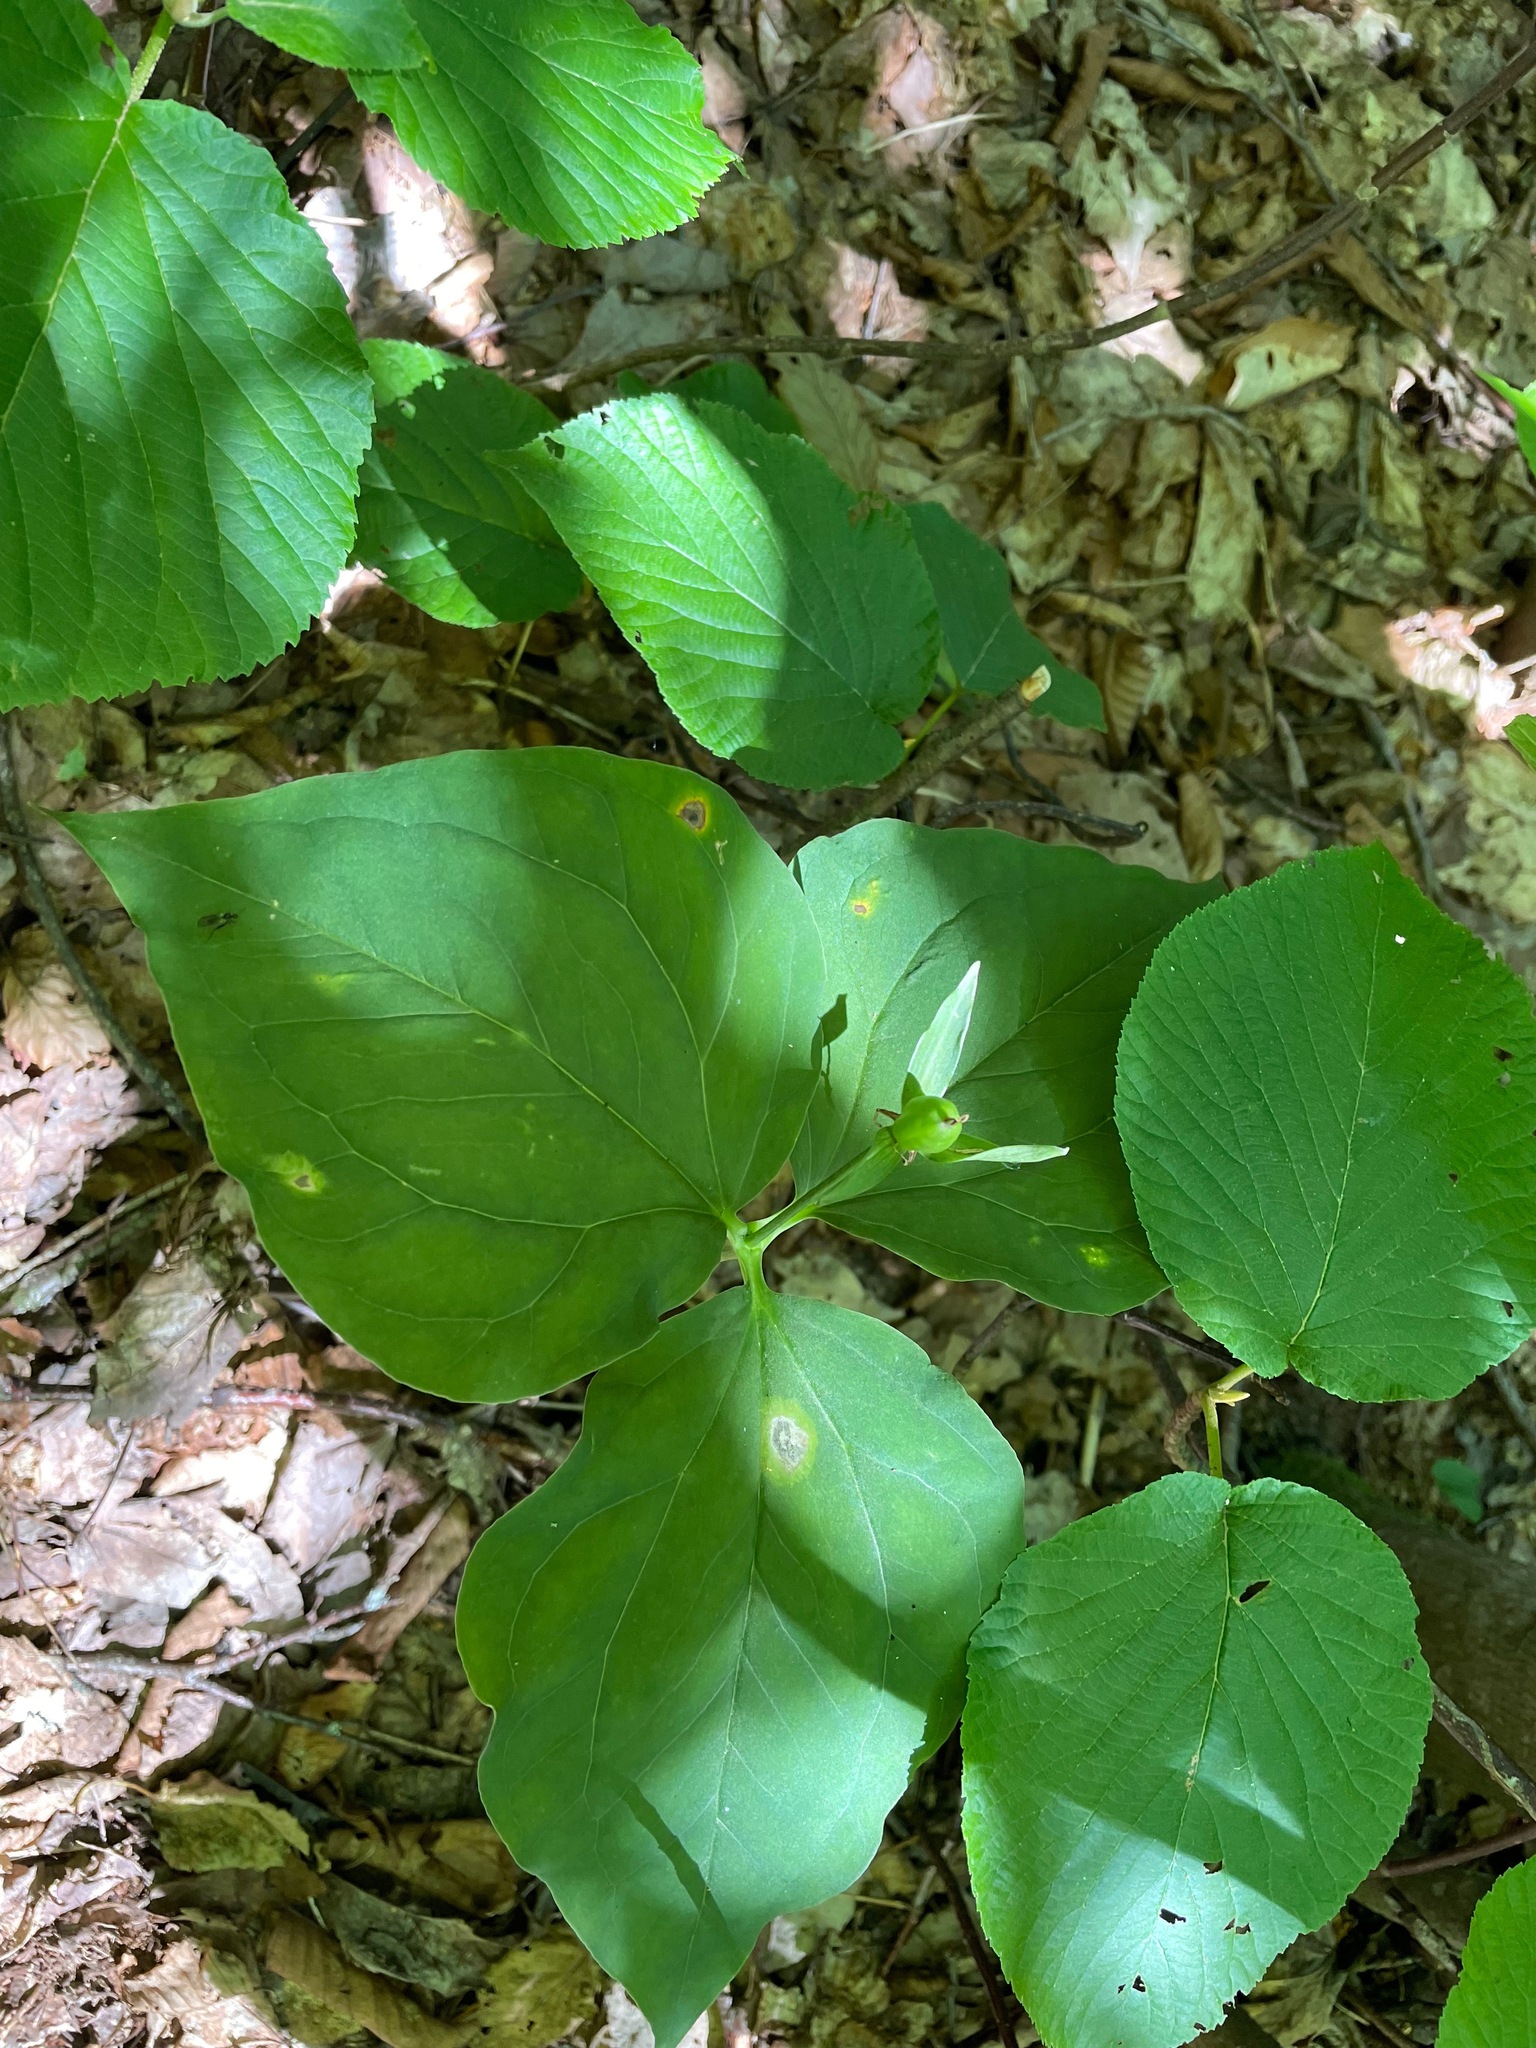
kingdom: Plantae
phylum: Tracheophyta
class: Liliopsida
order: Liliales
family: Melanthiaceae
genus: Trillium
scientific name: Trillium undulatum
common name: Paint trillium
